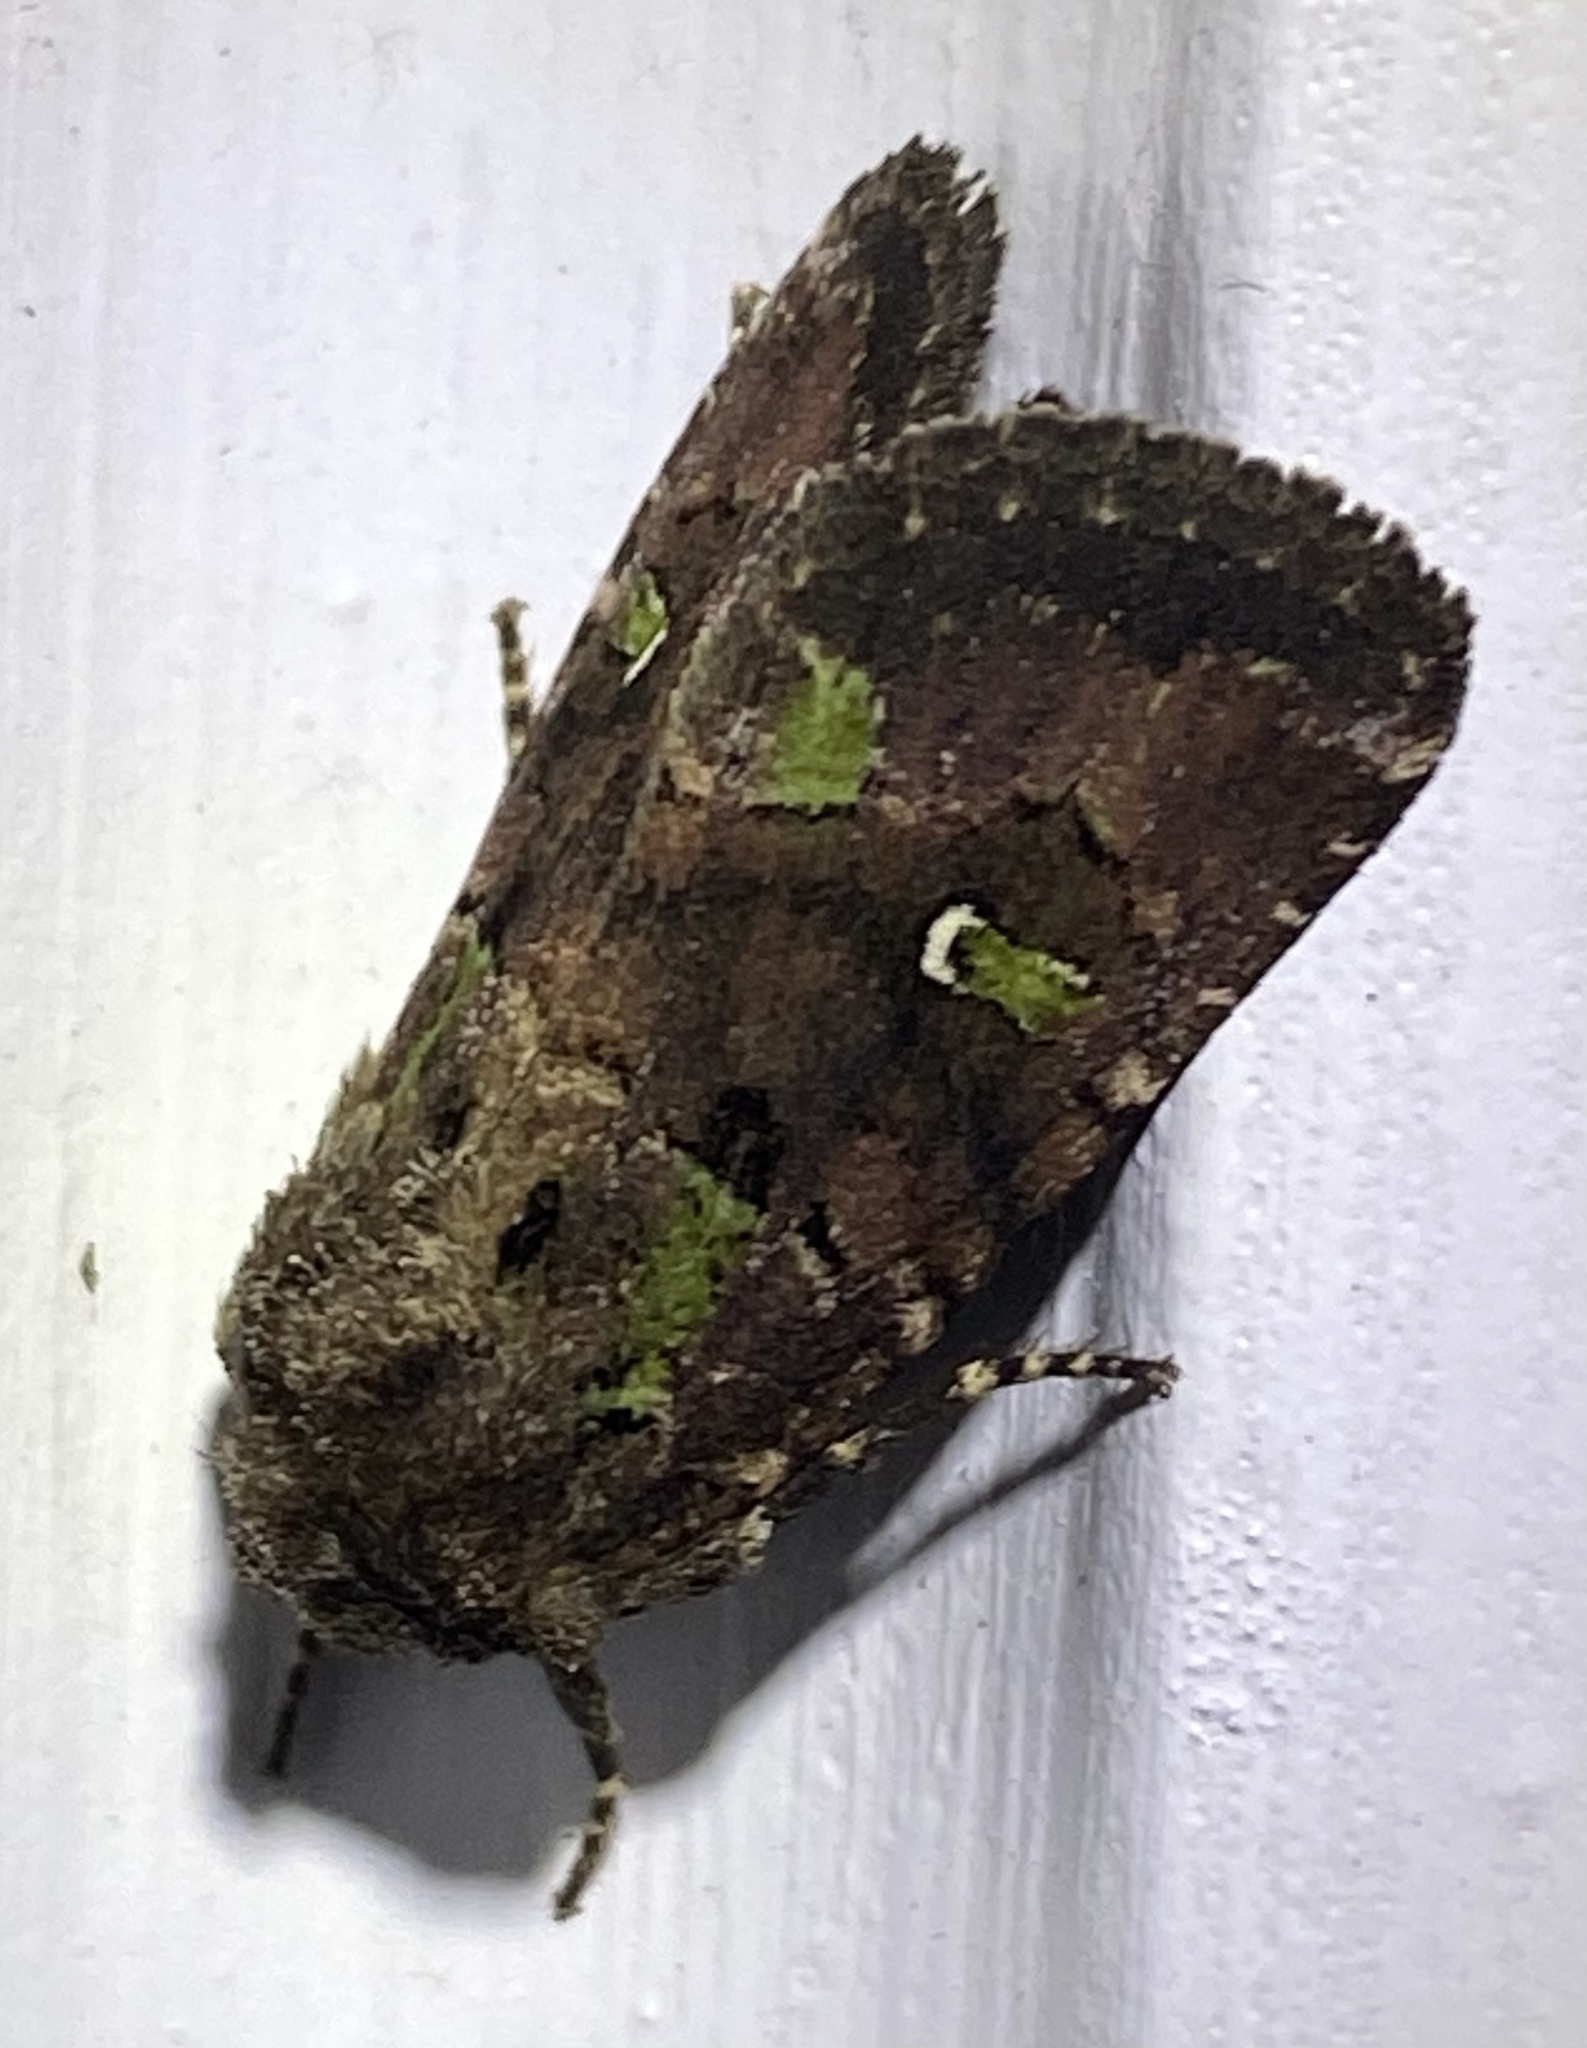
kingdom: Animalia
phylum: Arthropoda
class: Insecta
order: Lepidoptera
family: Noctuidae
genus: Lacinipolia
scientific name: Lacinipolia renigera
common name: Kidney-spotted minor
